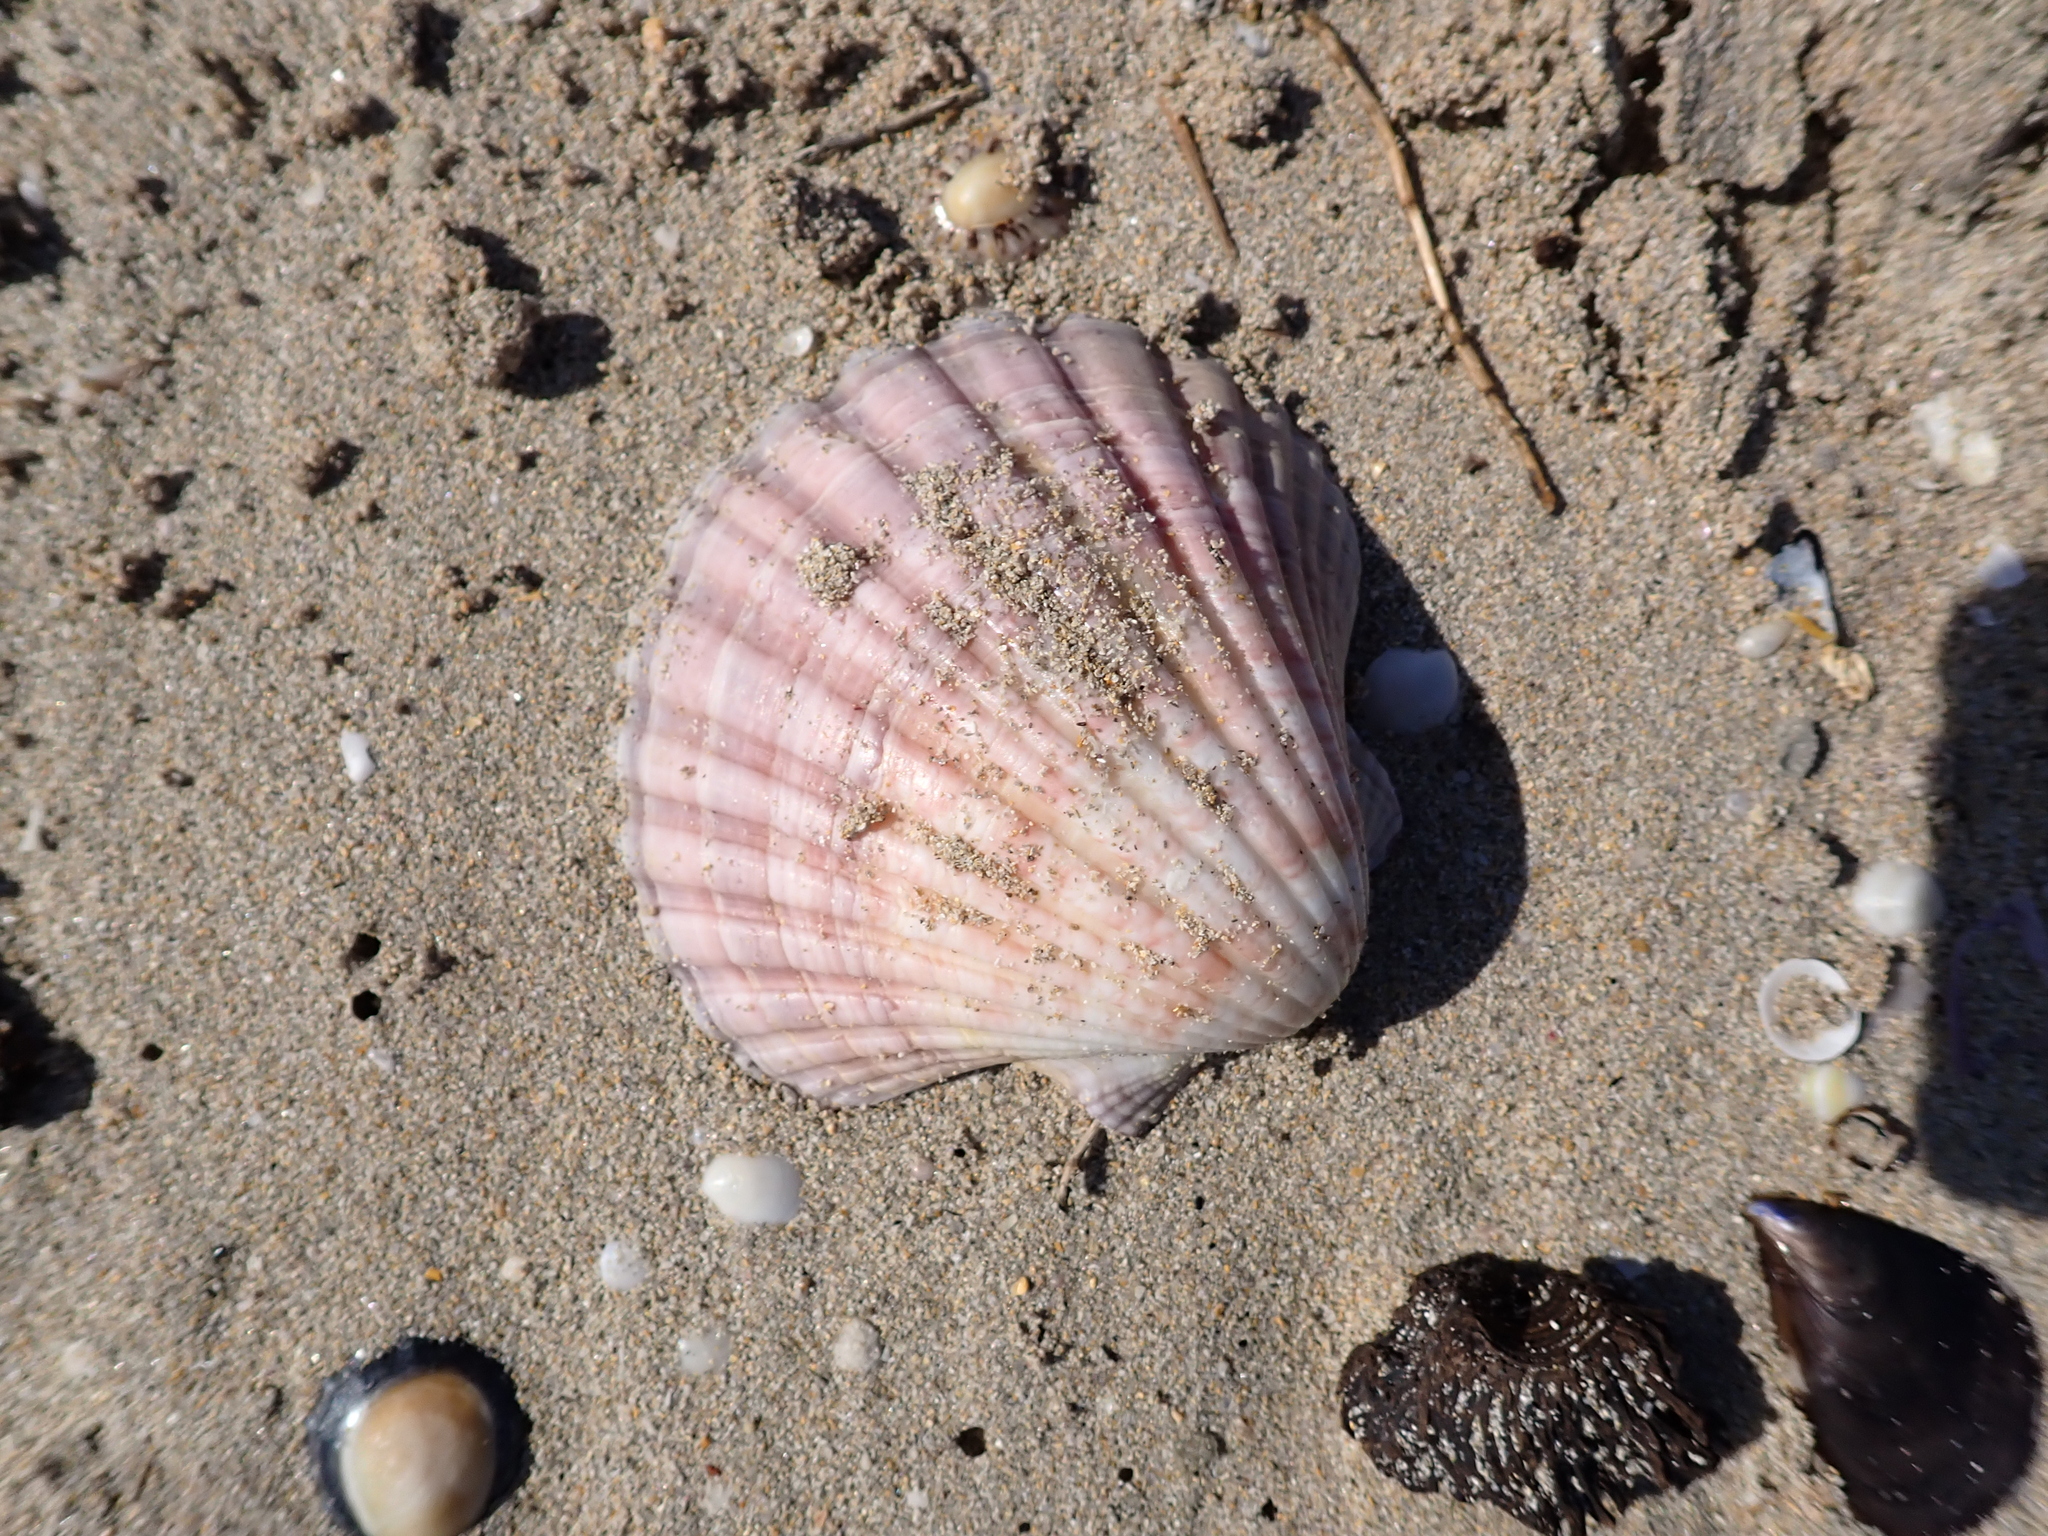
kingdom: Animalia
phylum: Mollusca
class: Bivalvia
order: Pectinida
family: Pectinidae
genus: Pecten
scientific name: Pecten fumatus
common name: Australian scallop
